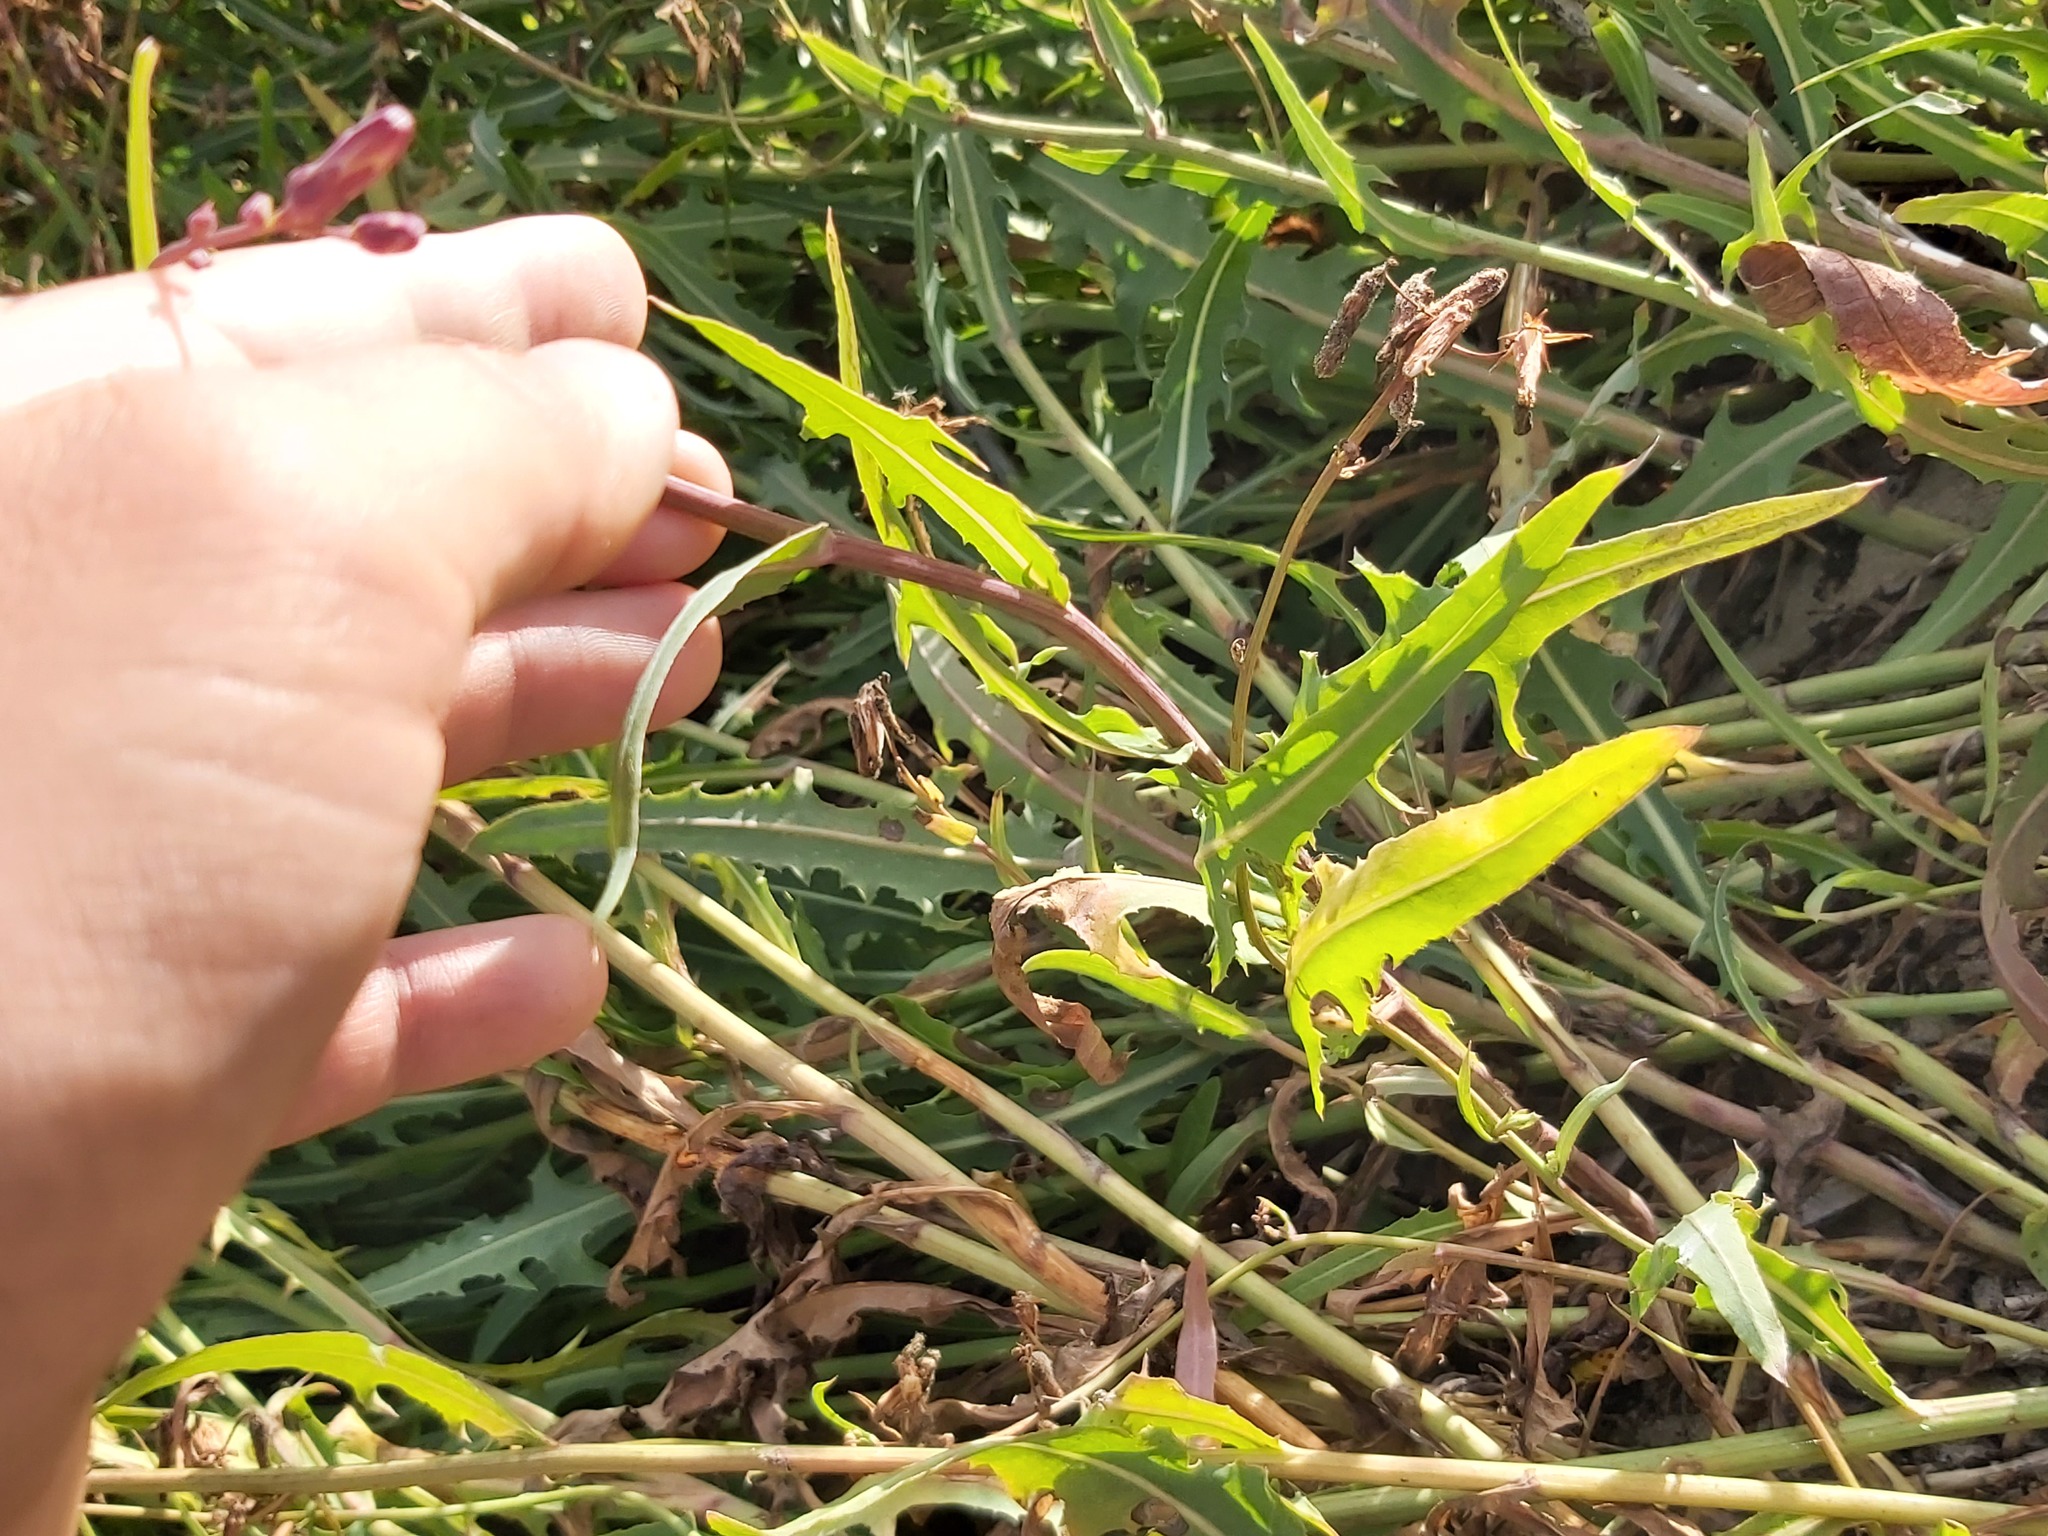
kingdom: Plantae
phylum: Tracheophyta
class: Magnoliopsida
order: Asterales
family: Asteraceae
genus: Lactuca
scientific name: Lactuca tatarica
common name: Blue lettuce
